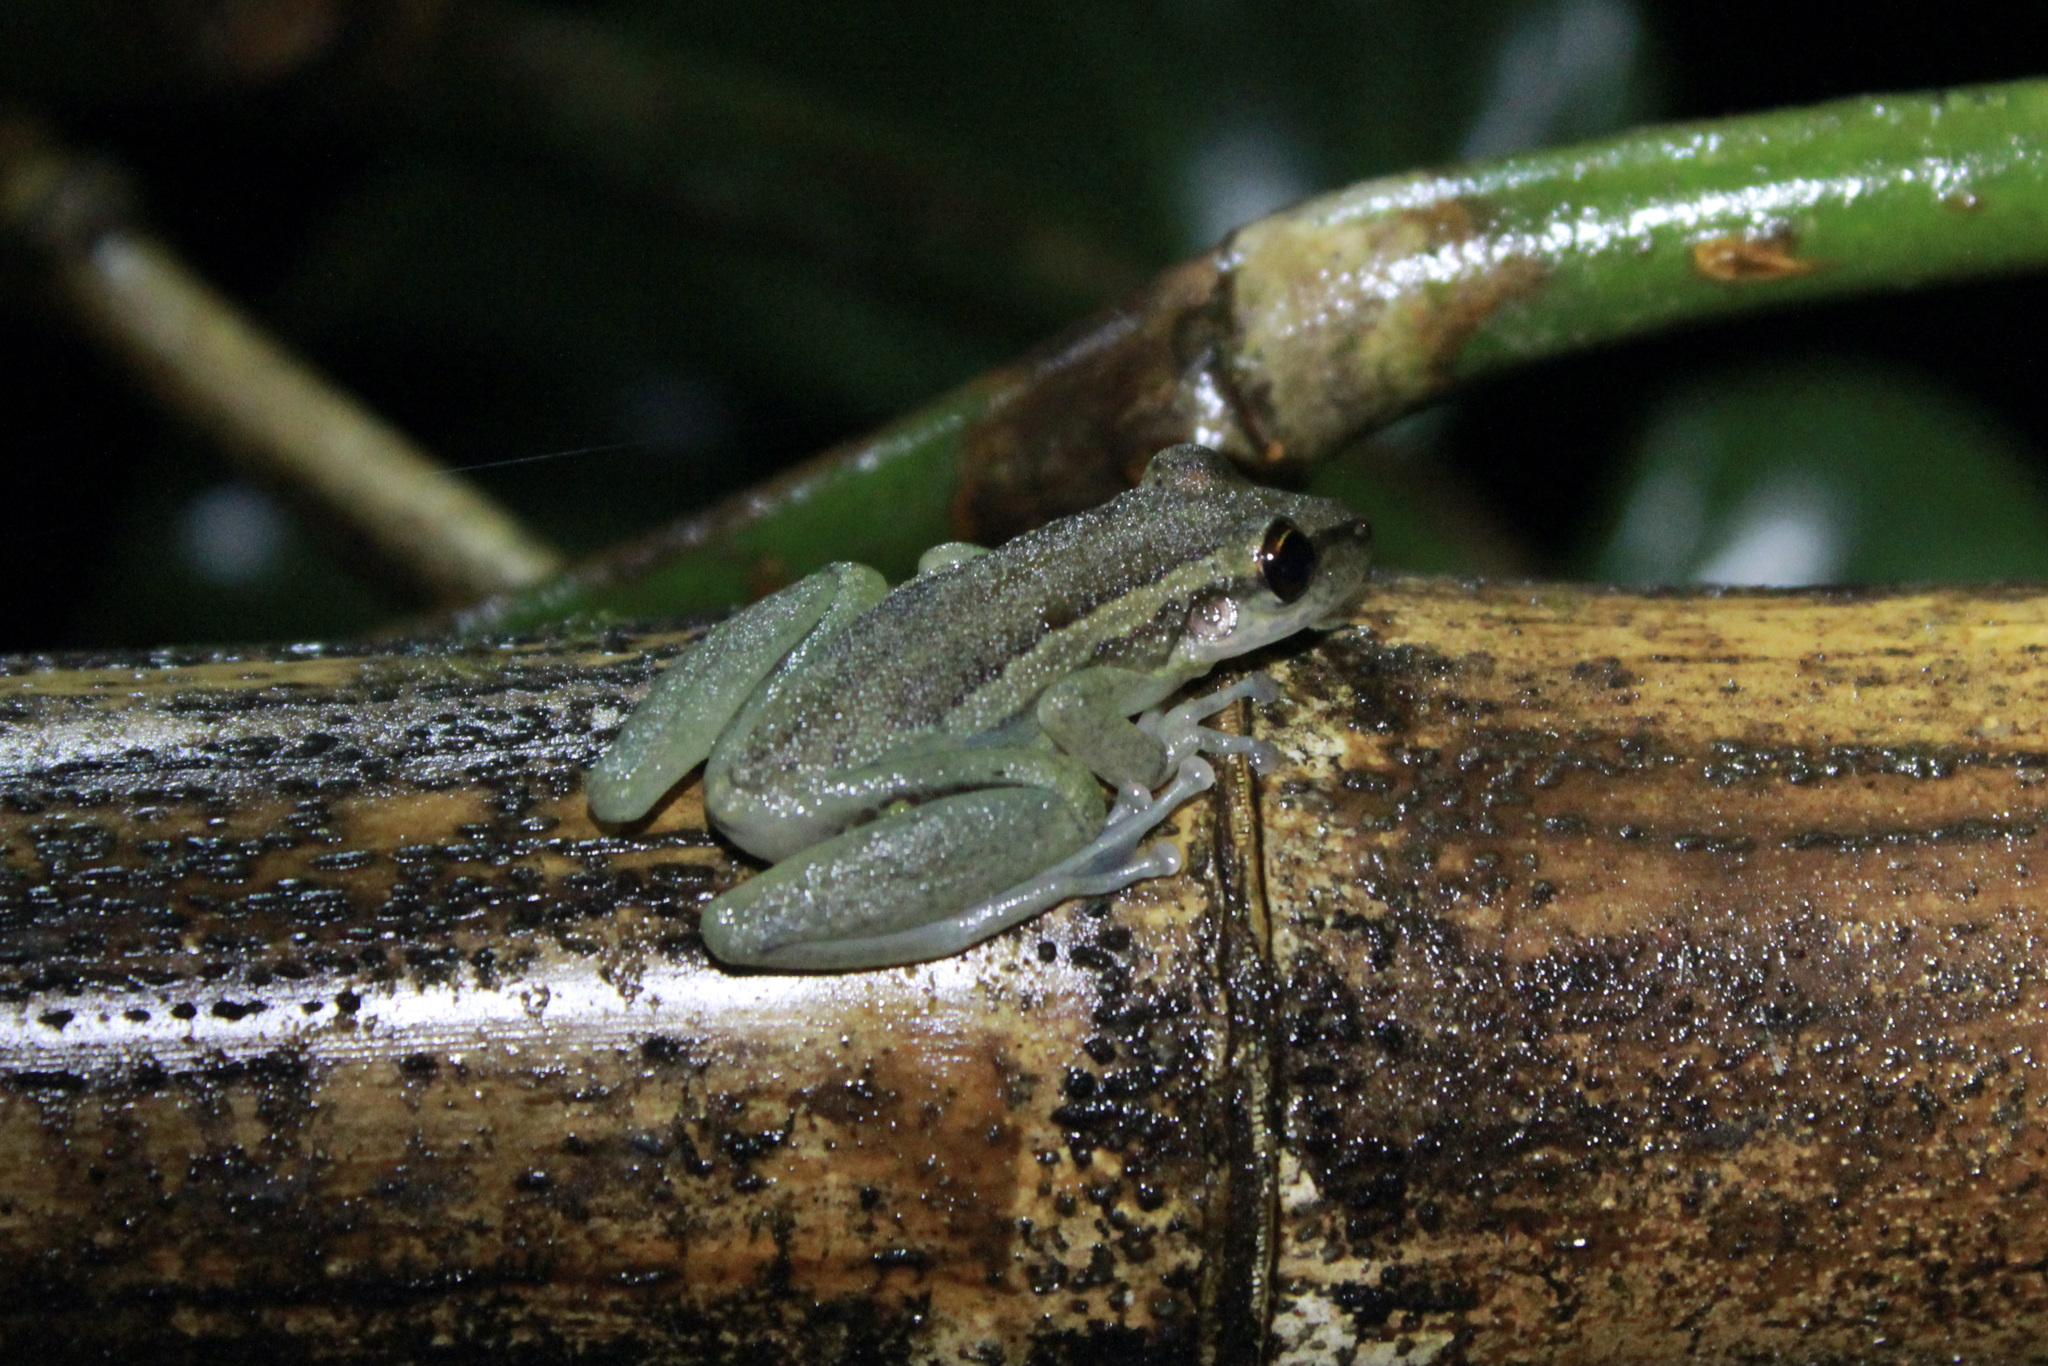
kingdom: Animalia
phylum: Chordata
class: Amphibia
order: Anura
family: Hylidae
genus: Scinax
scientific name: Scinax ruber
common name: Red snouted treefrog
